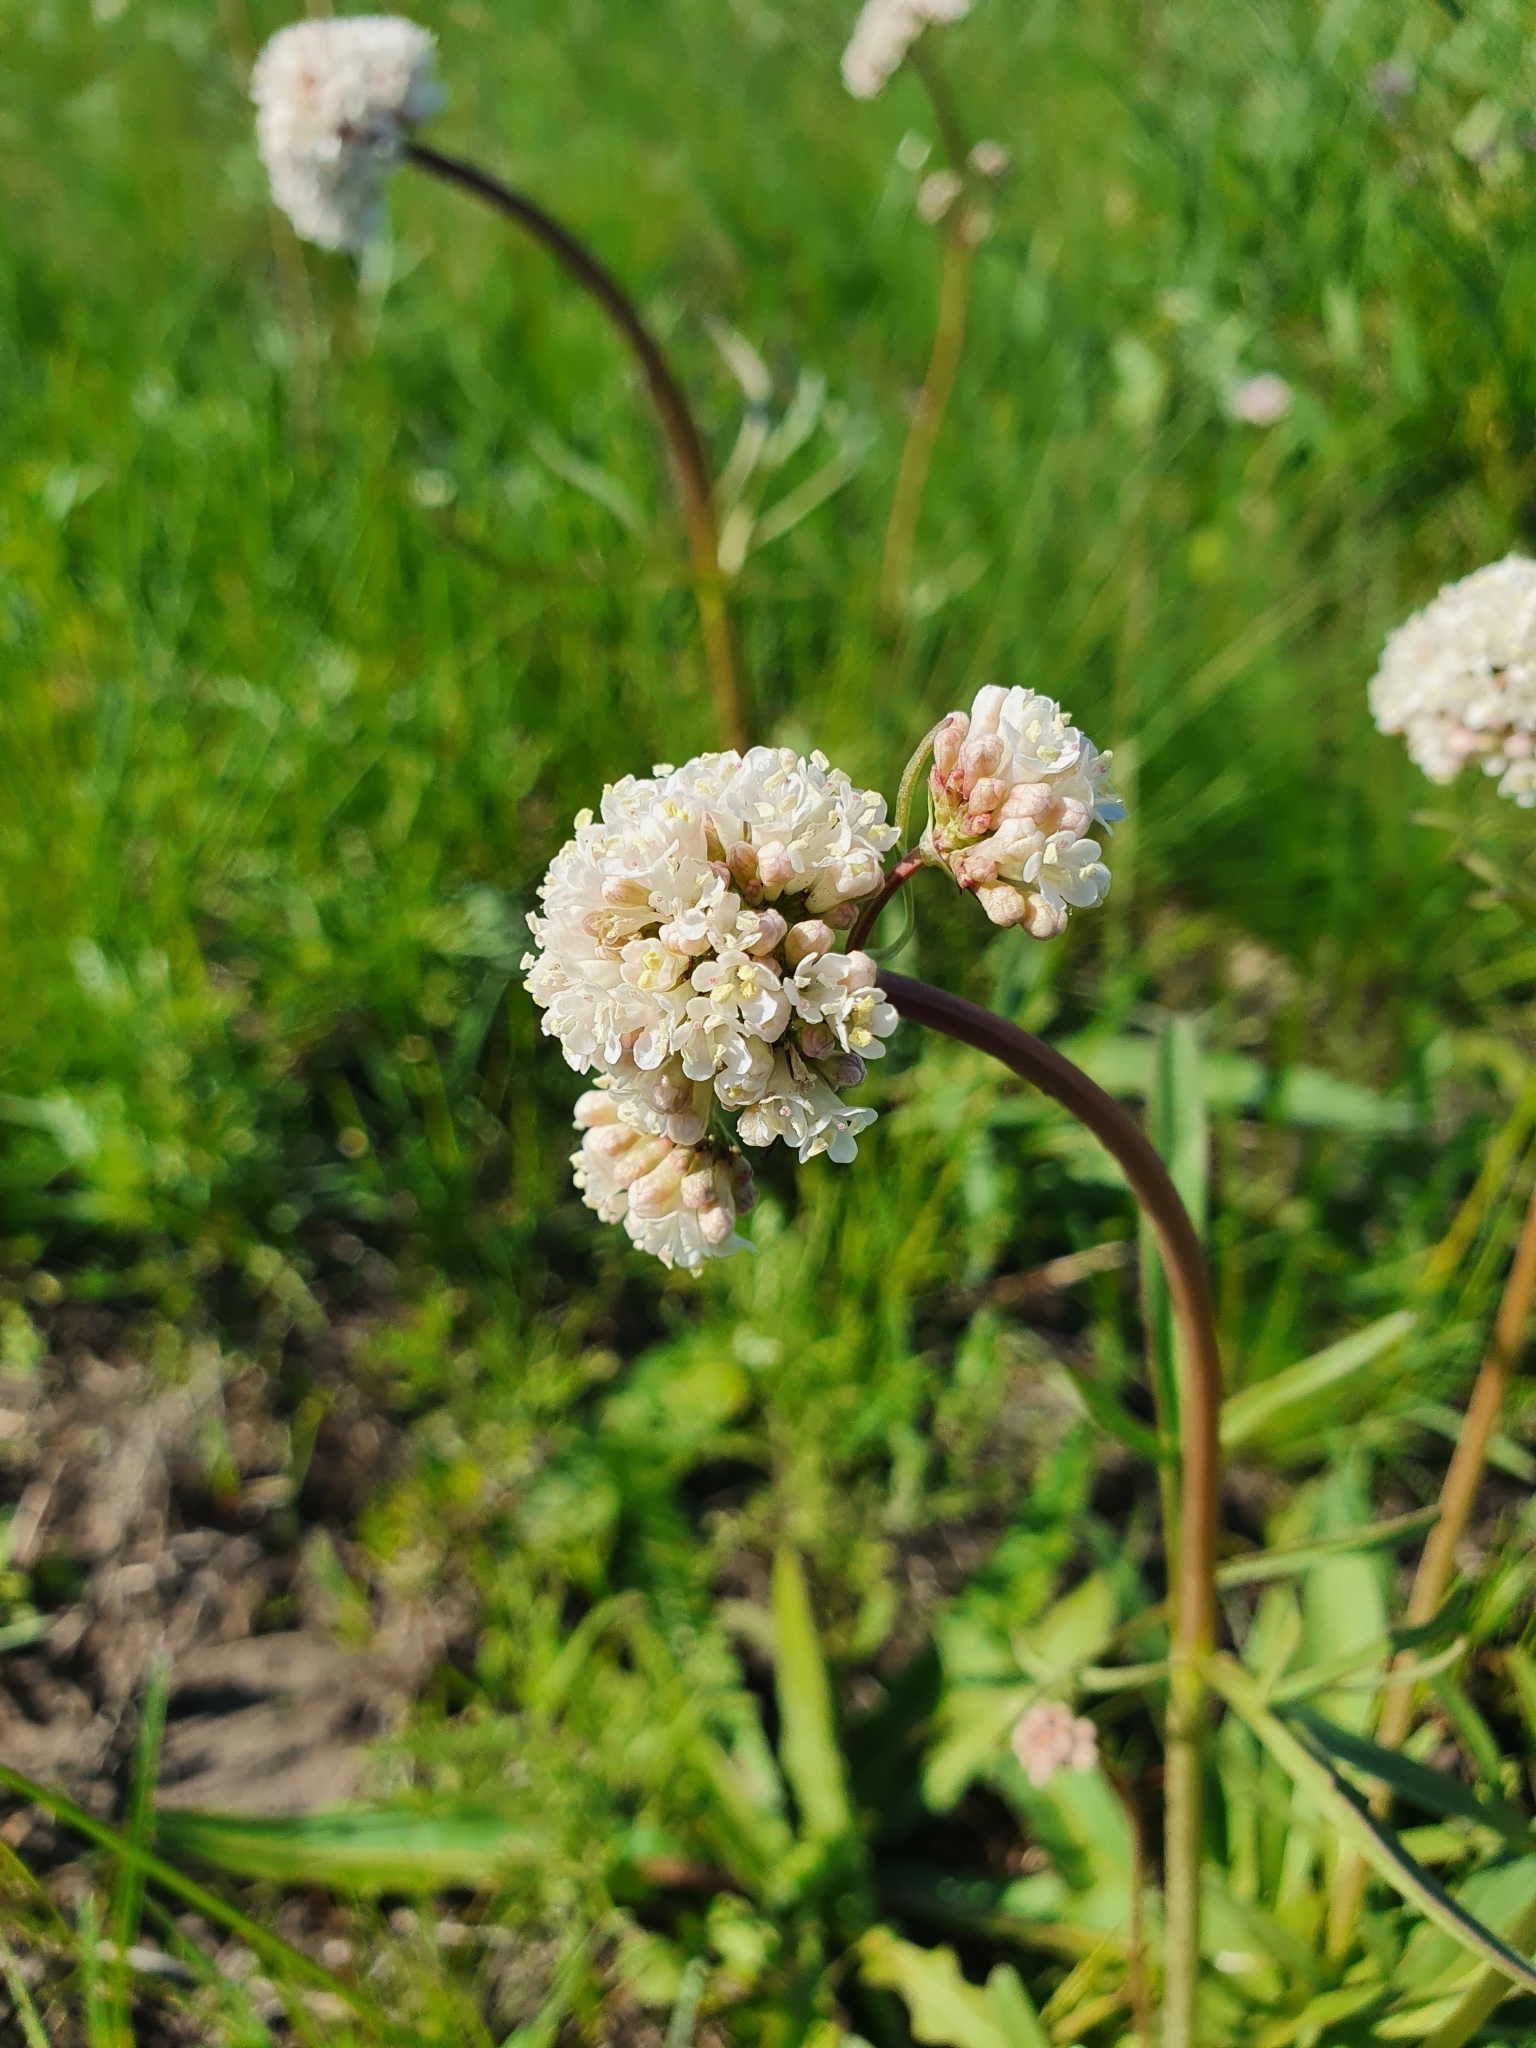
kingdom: Plantae
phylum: Tracheophyta
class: Magnoliopsida
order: Dipsacales
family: Caprifoliaceae
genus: Valeriana
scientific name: Valeriana tuberosa
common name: Tuberous valerian
